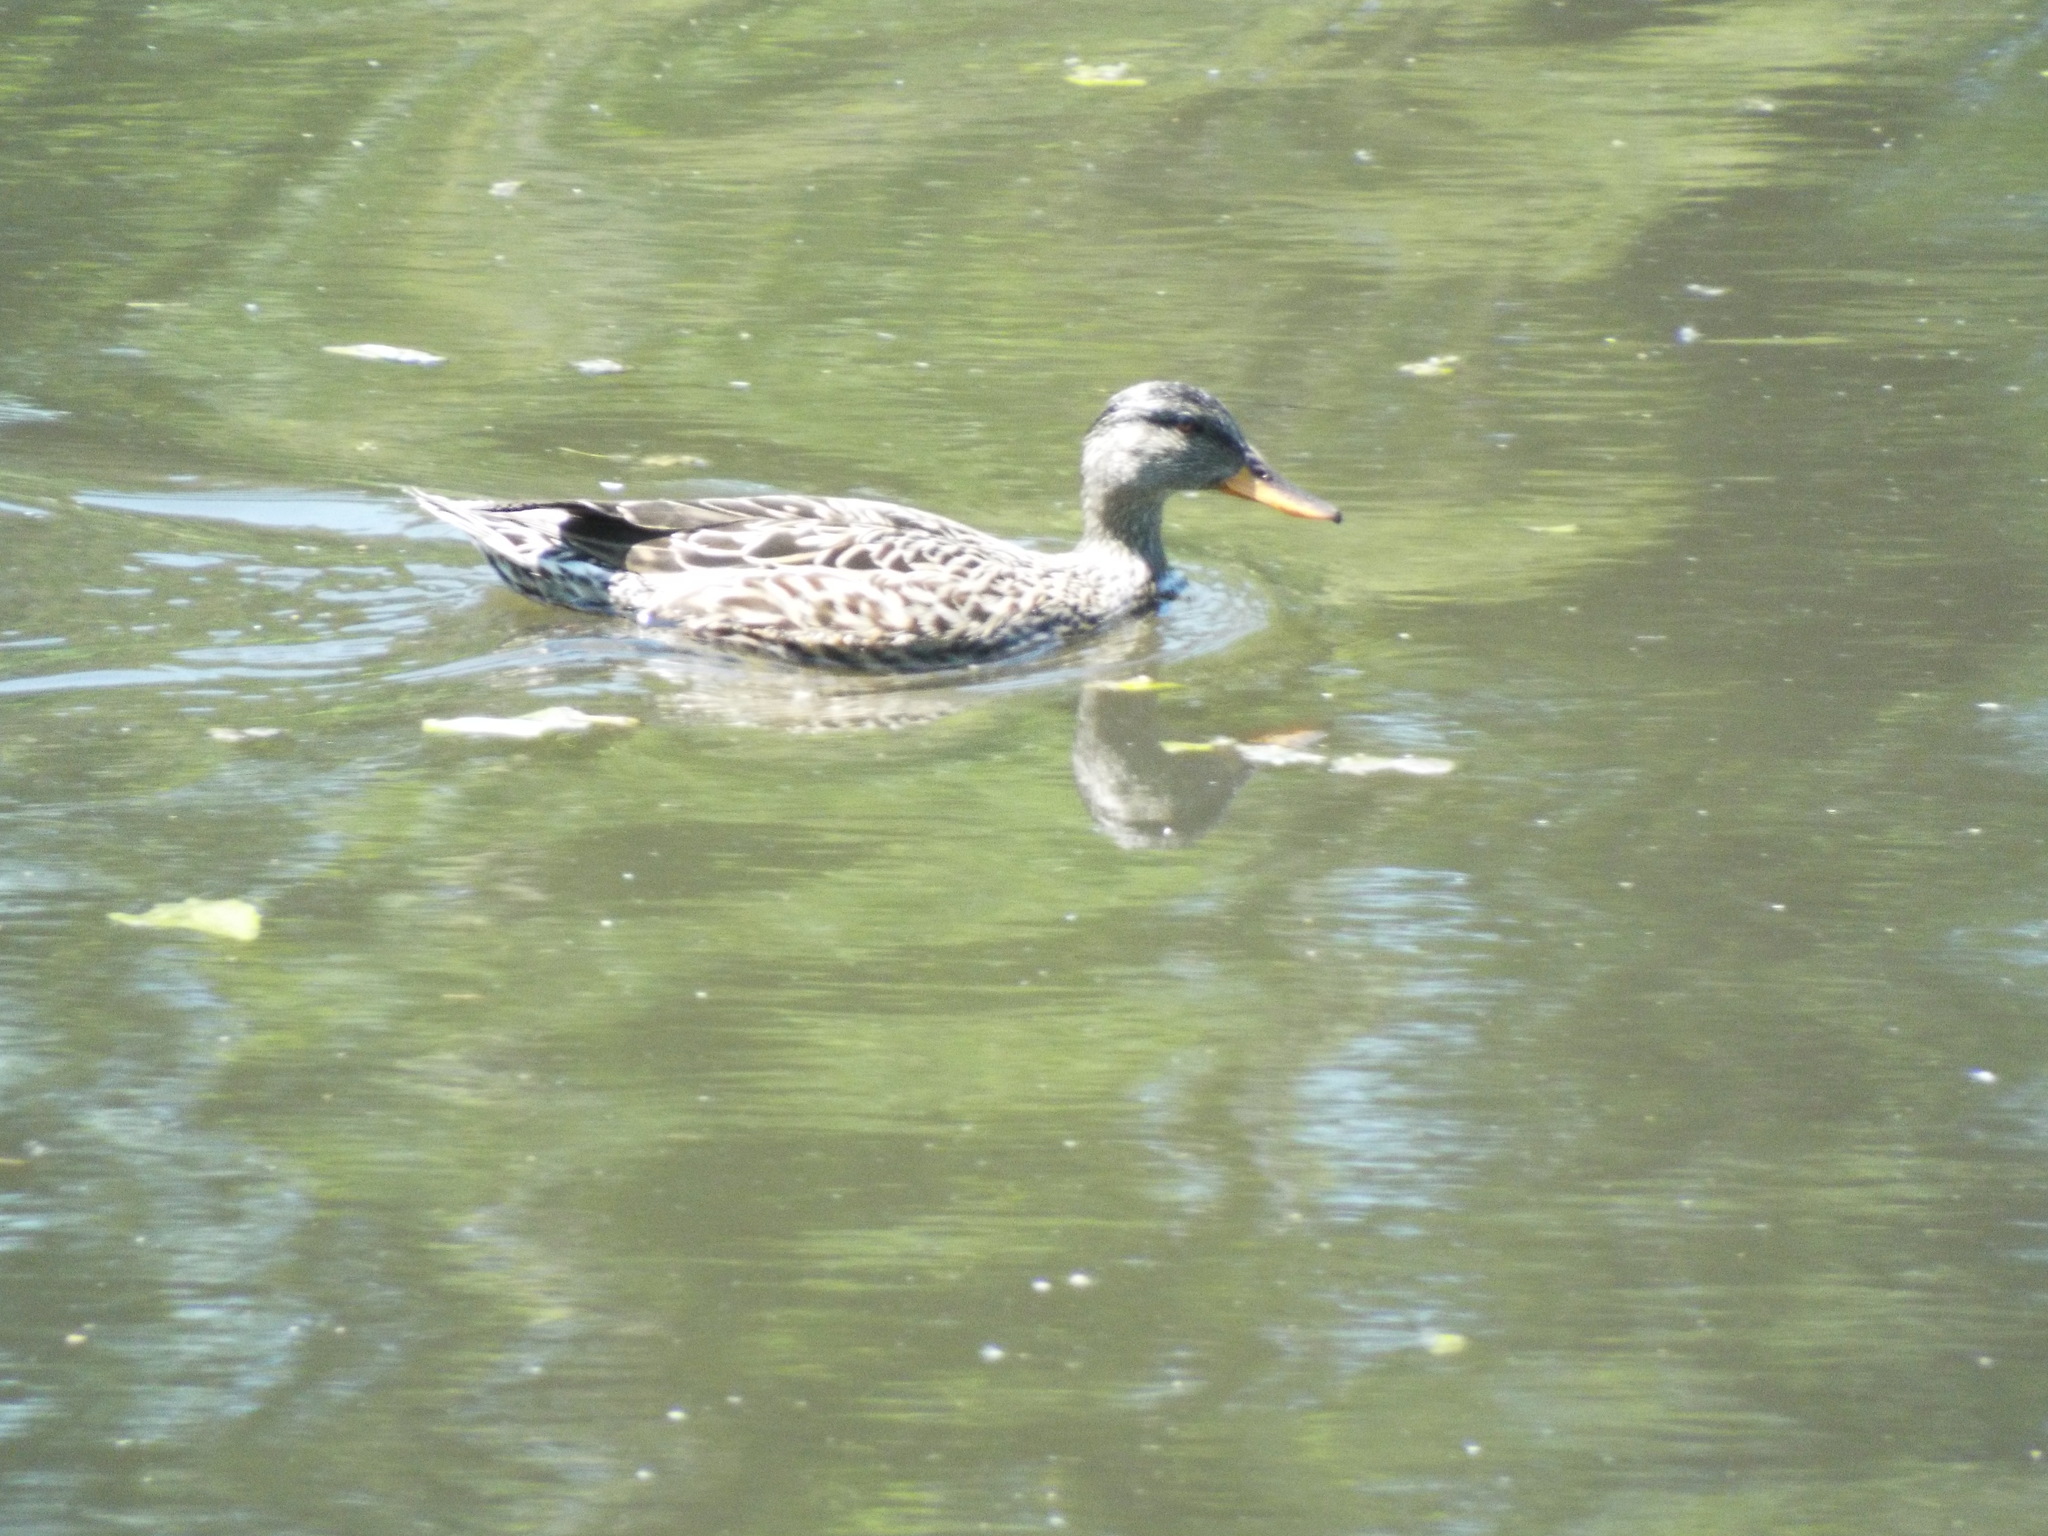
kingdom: Animalia
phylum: Chordata
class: Aves
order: Anseriformes
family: Anatidae
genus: Mareca
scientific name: Mareca strepera
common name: Gadwall
